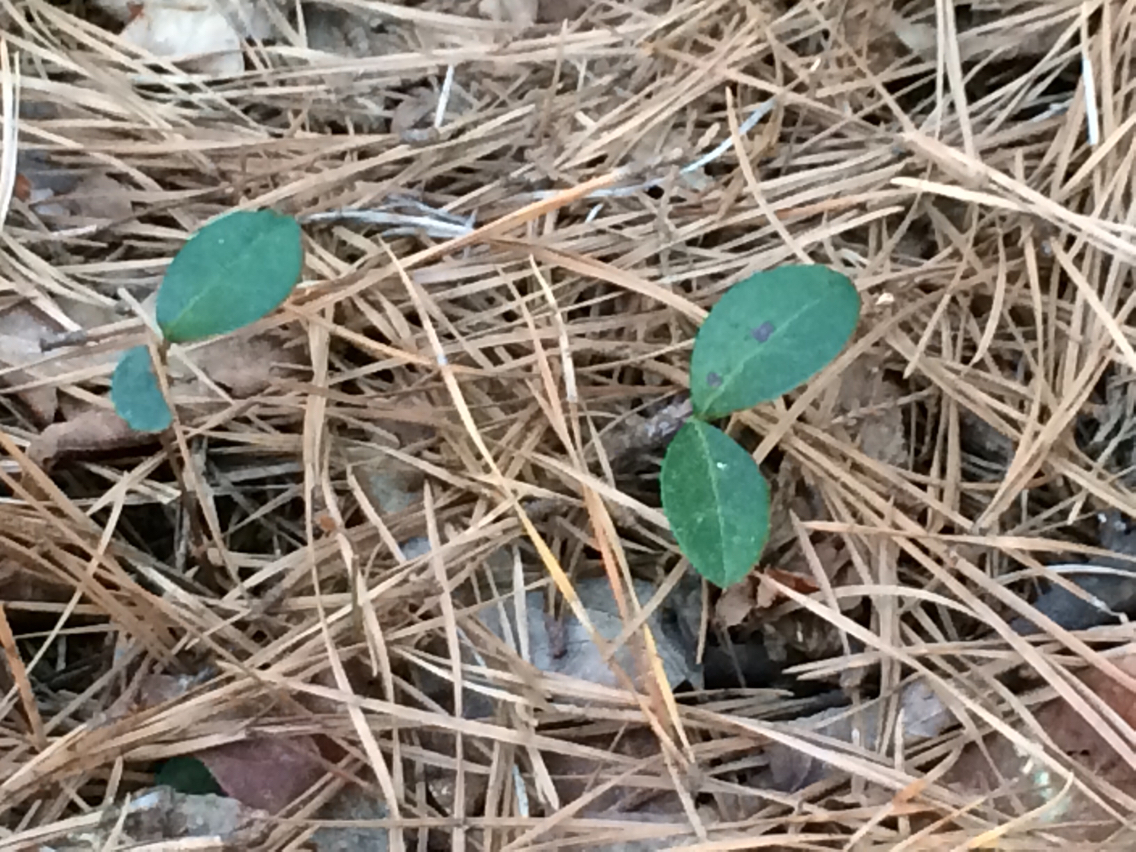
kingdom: Plantae
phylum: Tracheophyta
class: Magnoliopsida
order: Ericales
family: Ericaceae
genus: Gaultheria
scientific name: Gaultheria procumbens
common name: Checkerberry
